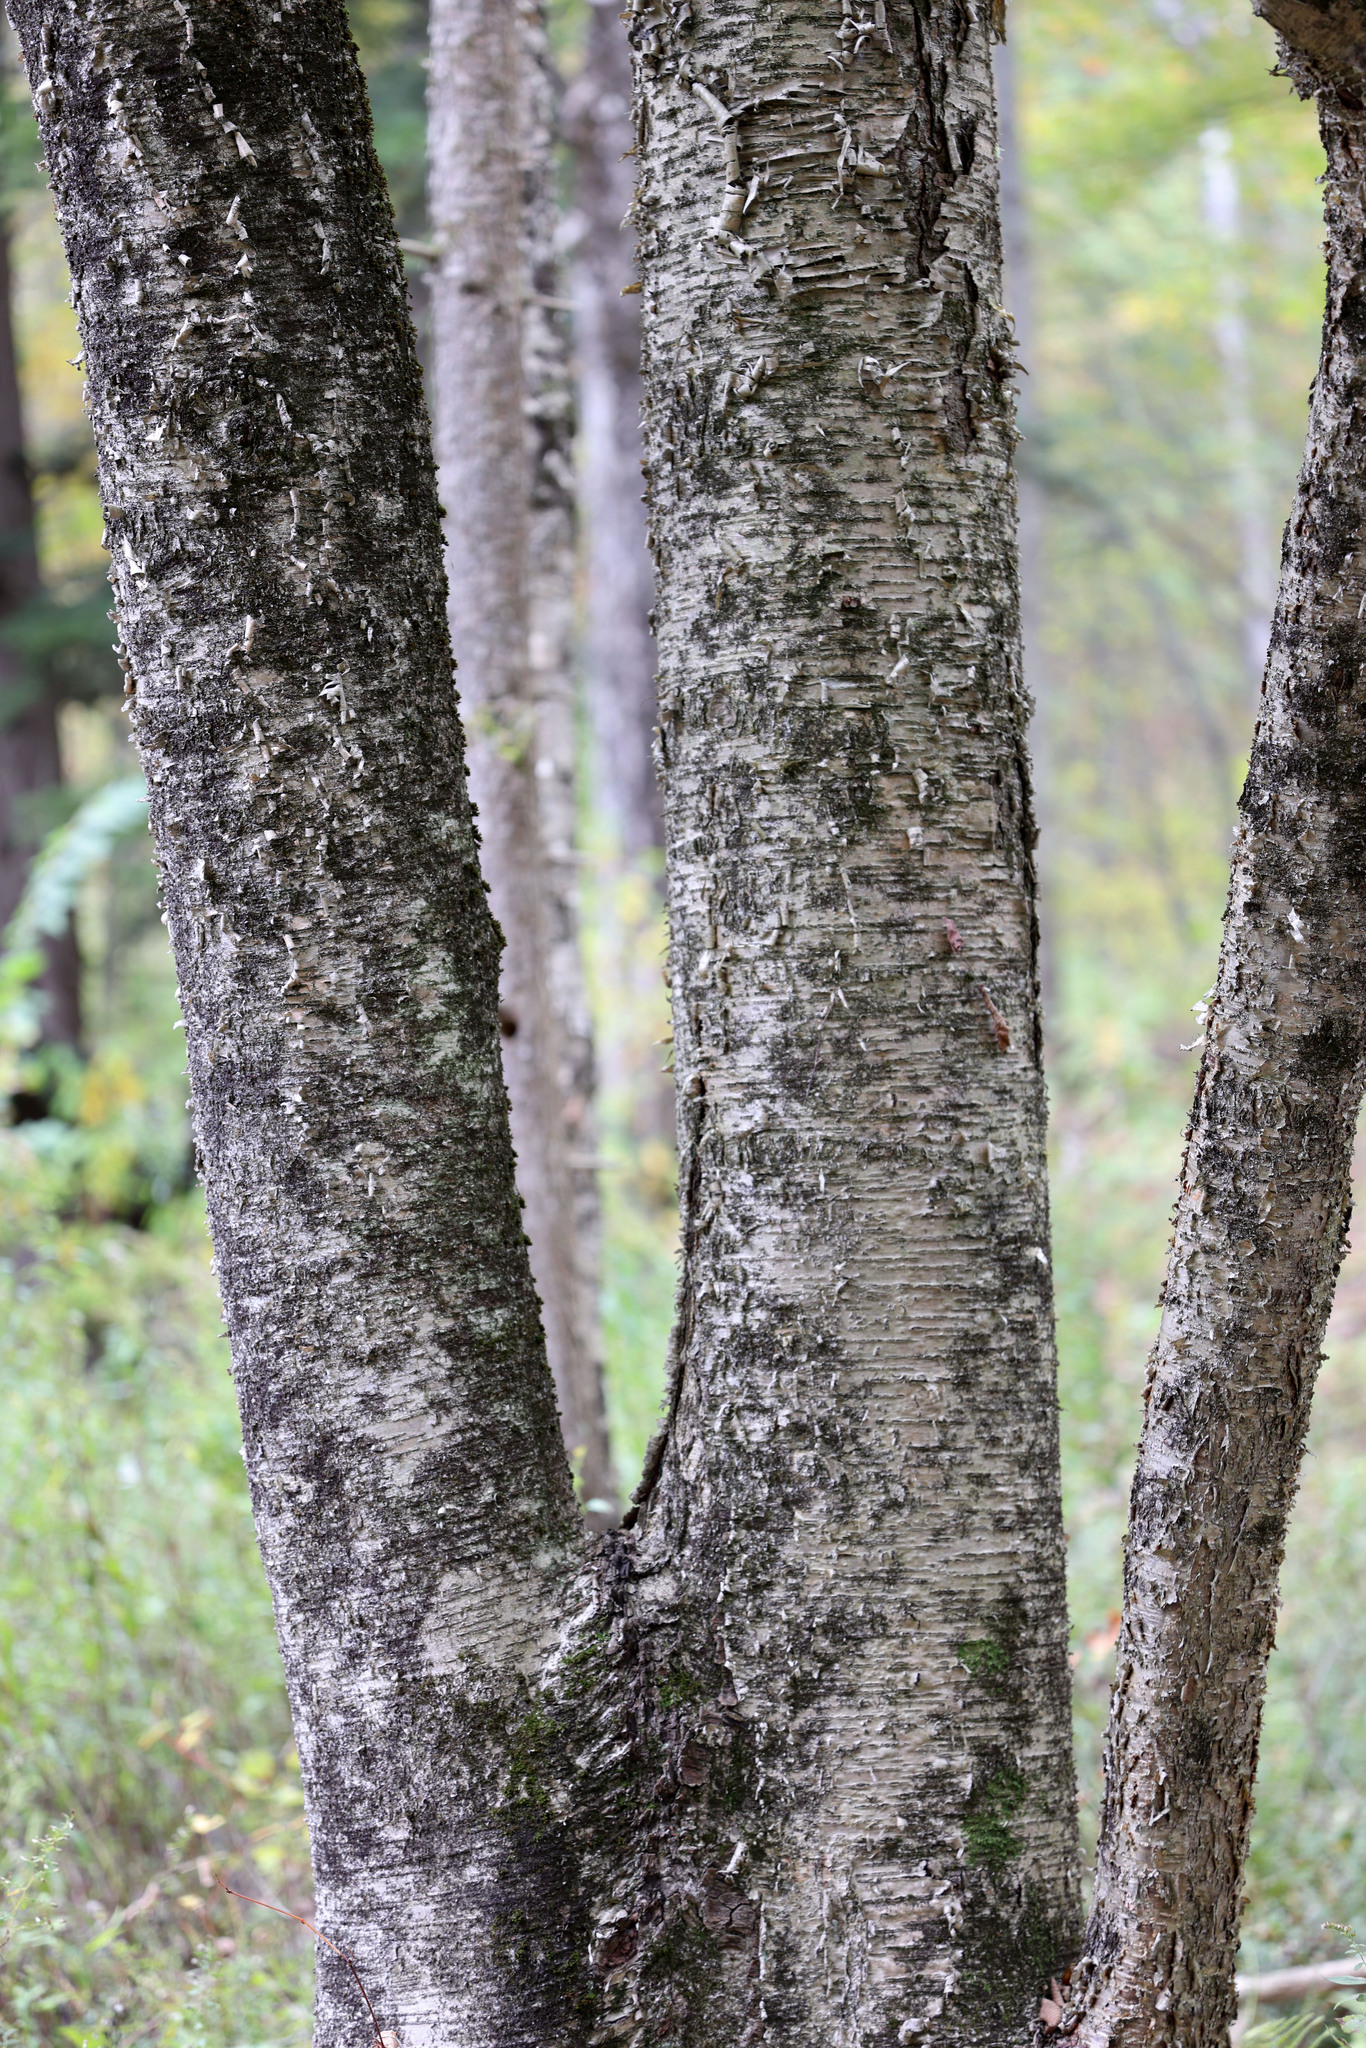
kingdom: Plantae
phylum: Tracheophyta
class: Magnoliopsida
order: Fagales
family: Betulaceae
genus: Betula
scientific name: Betula alleghaniensis
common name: Yellow birch
